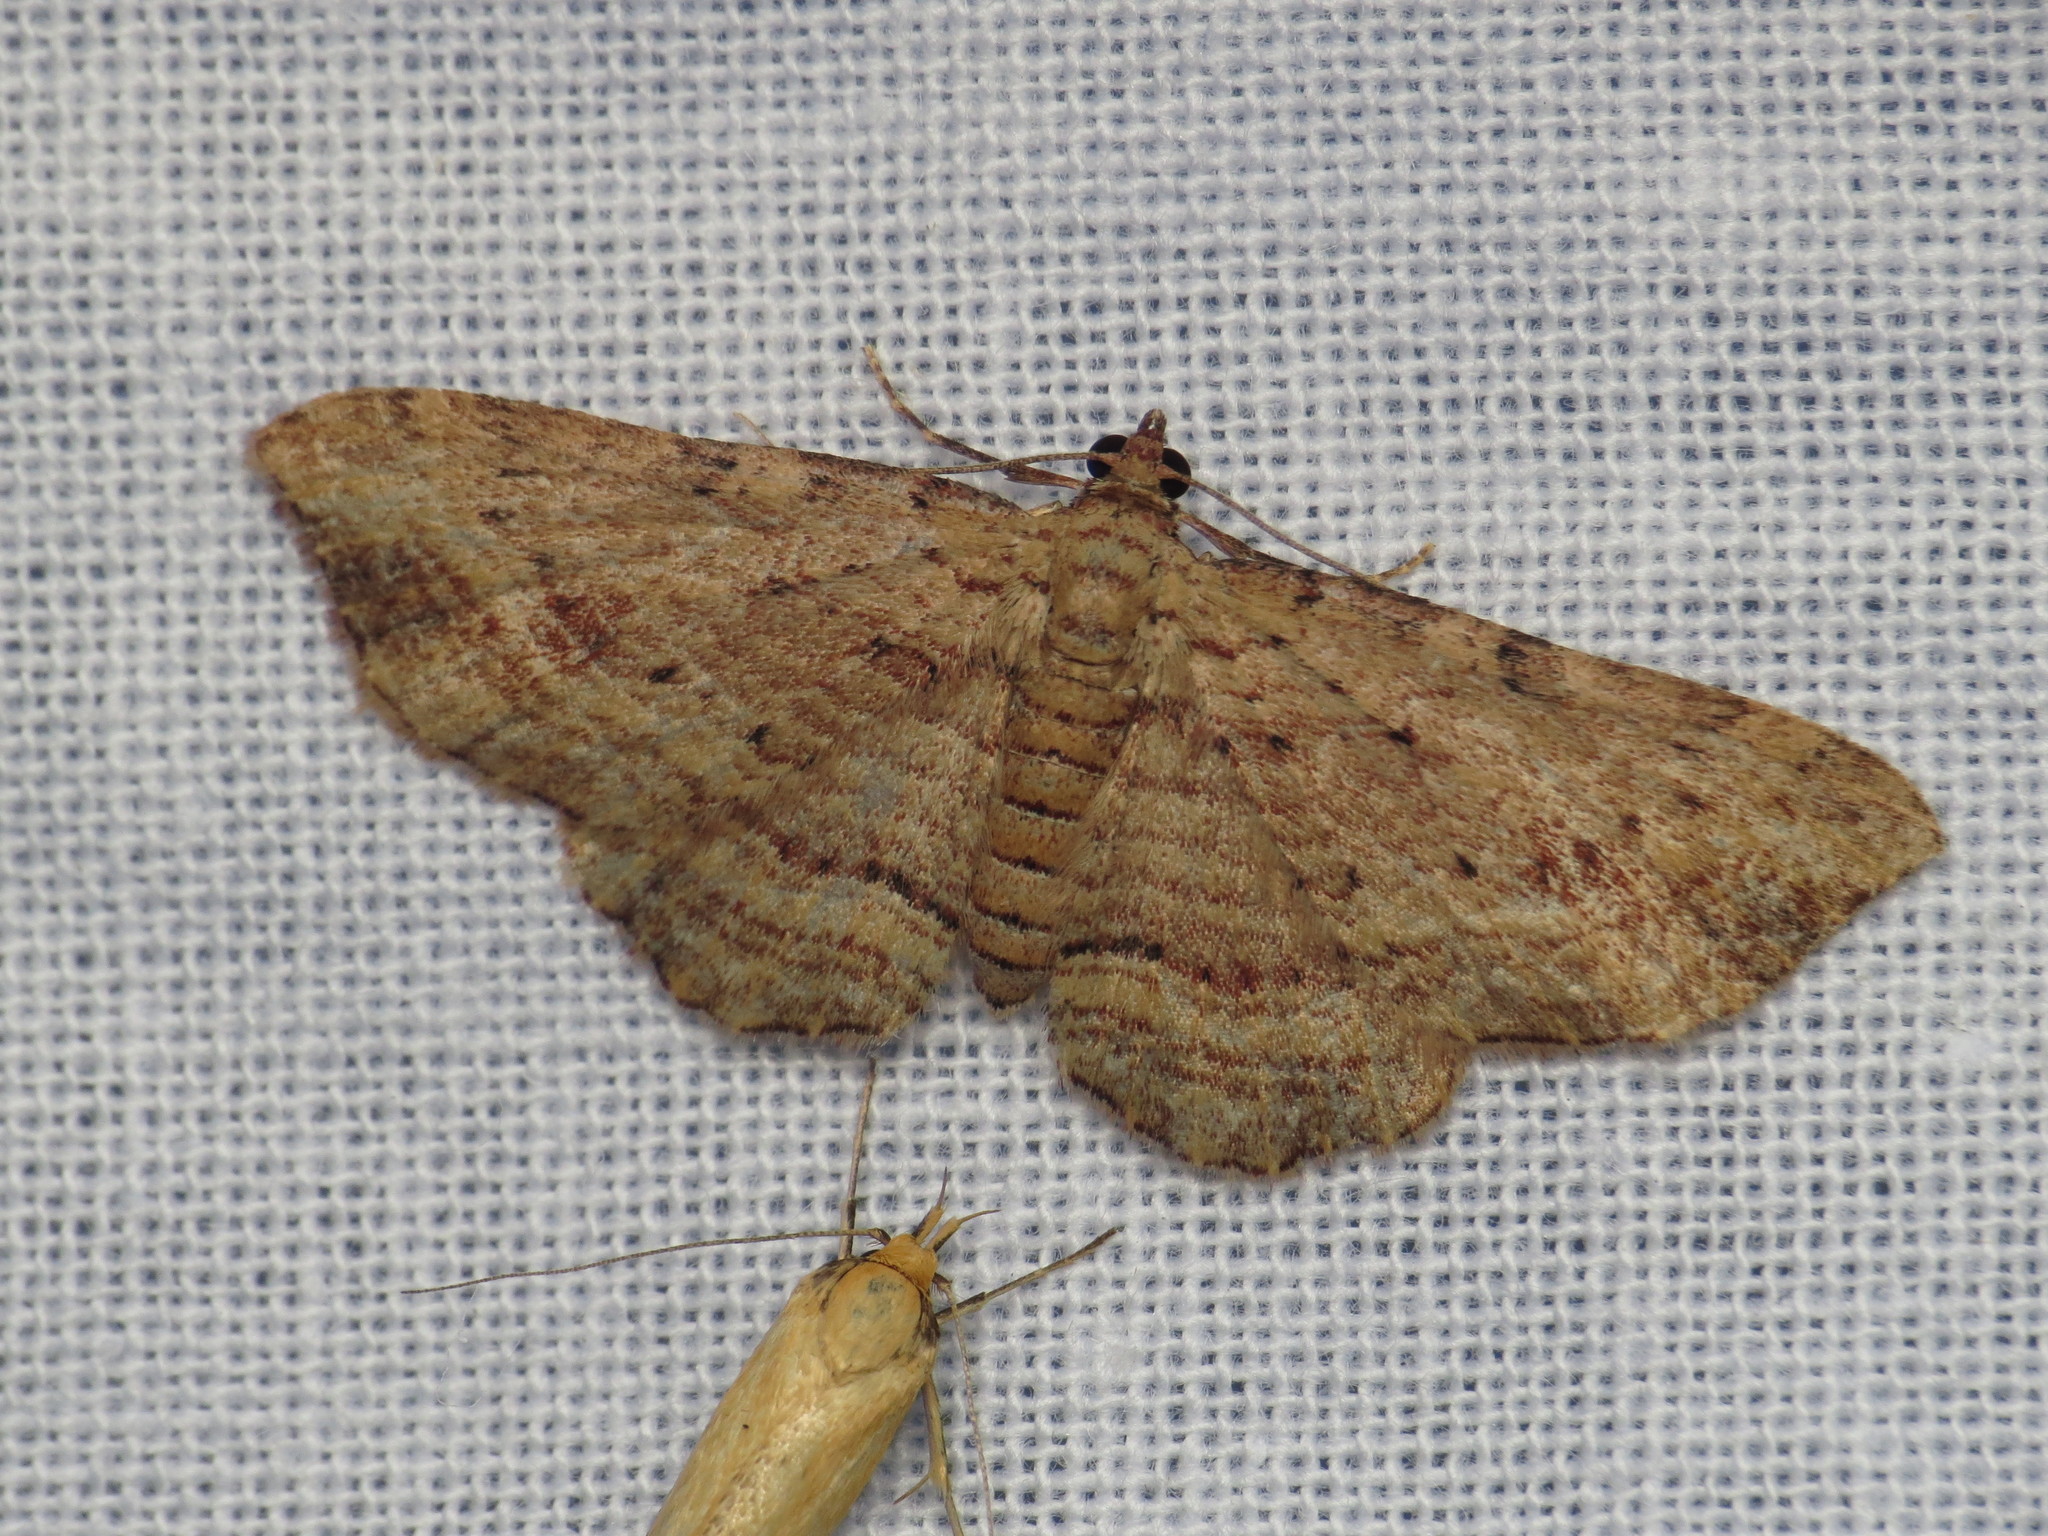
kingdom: Animalia
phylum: Arthropoda
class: Insecta
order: Lepidoptera
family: Geometridae
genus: Xanthorhoe
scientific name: Xanthorhoe anaspila
